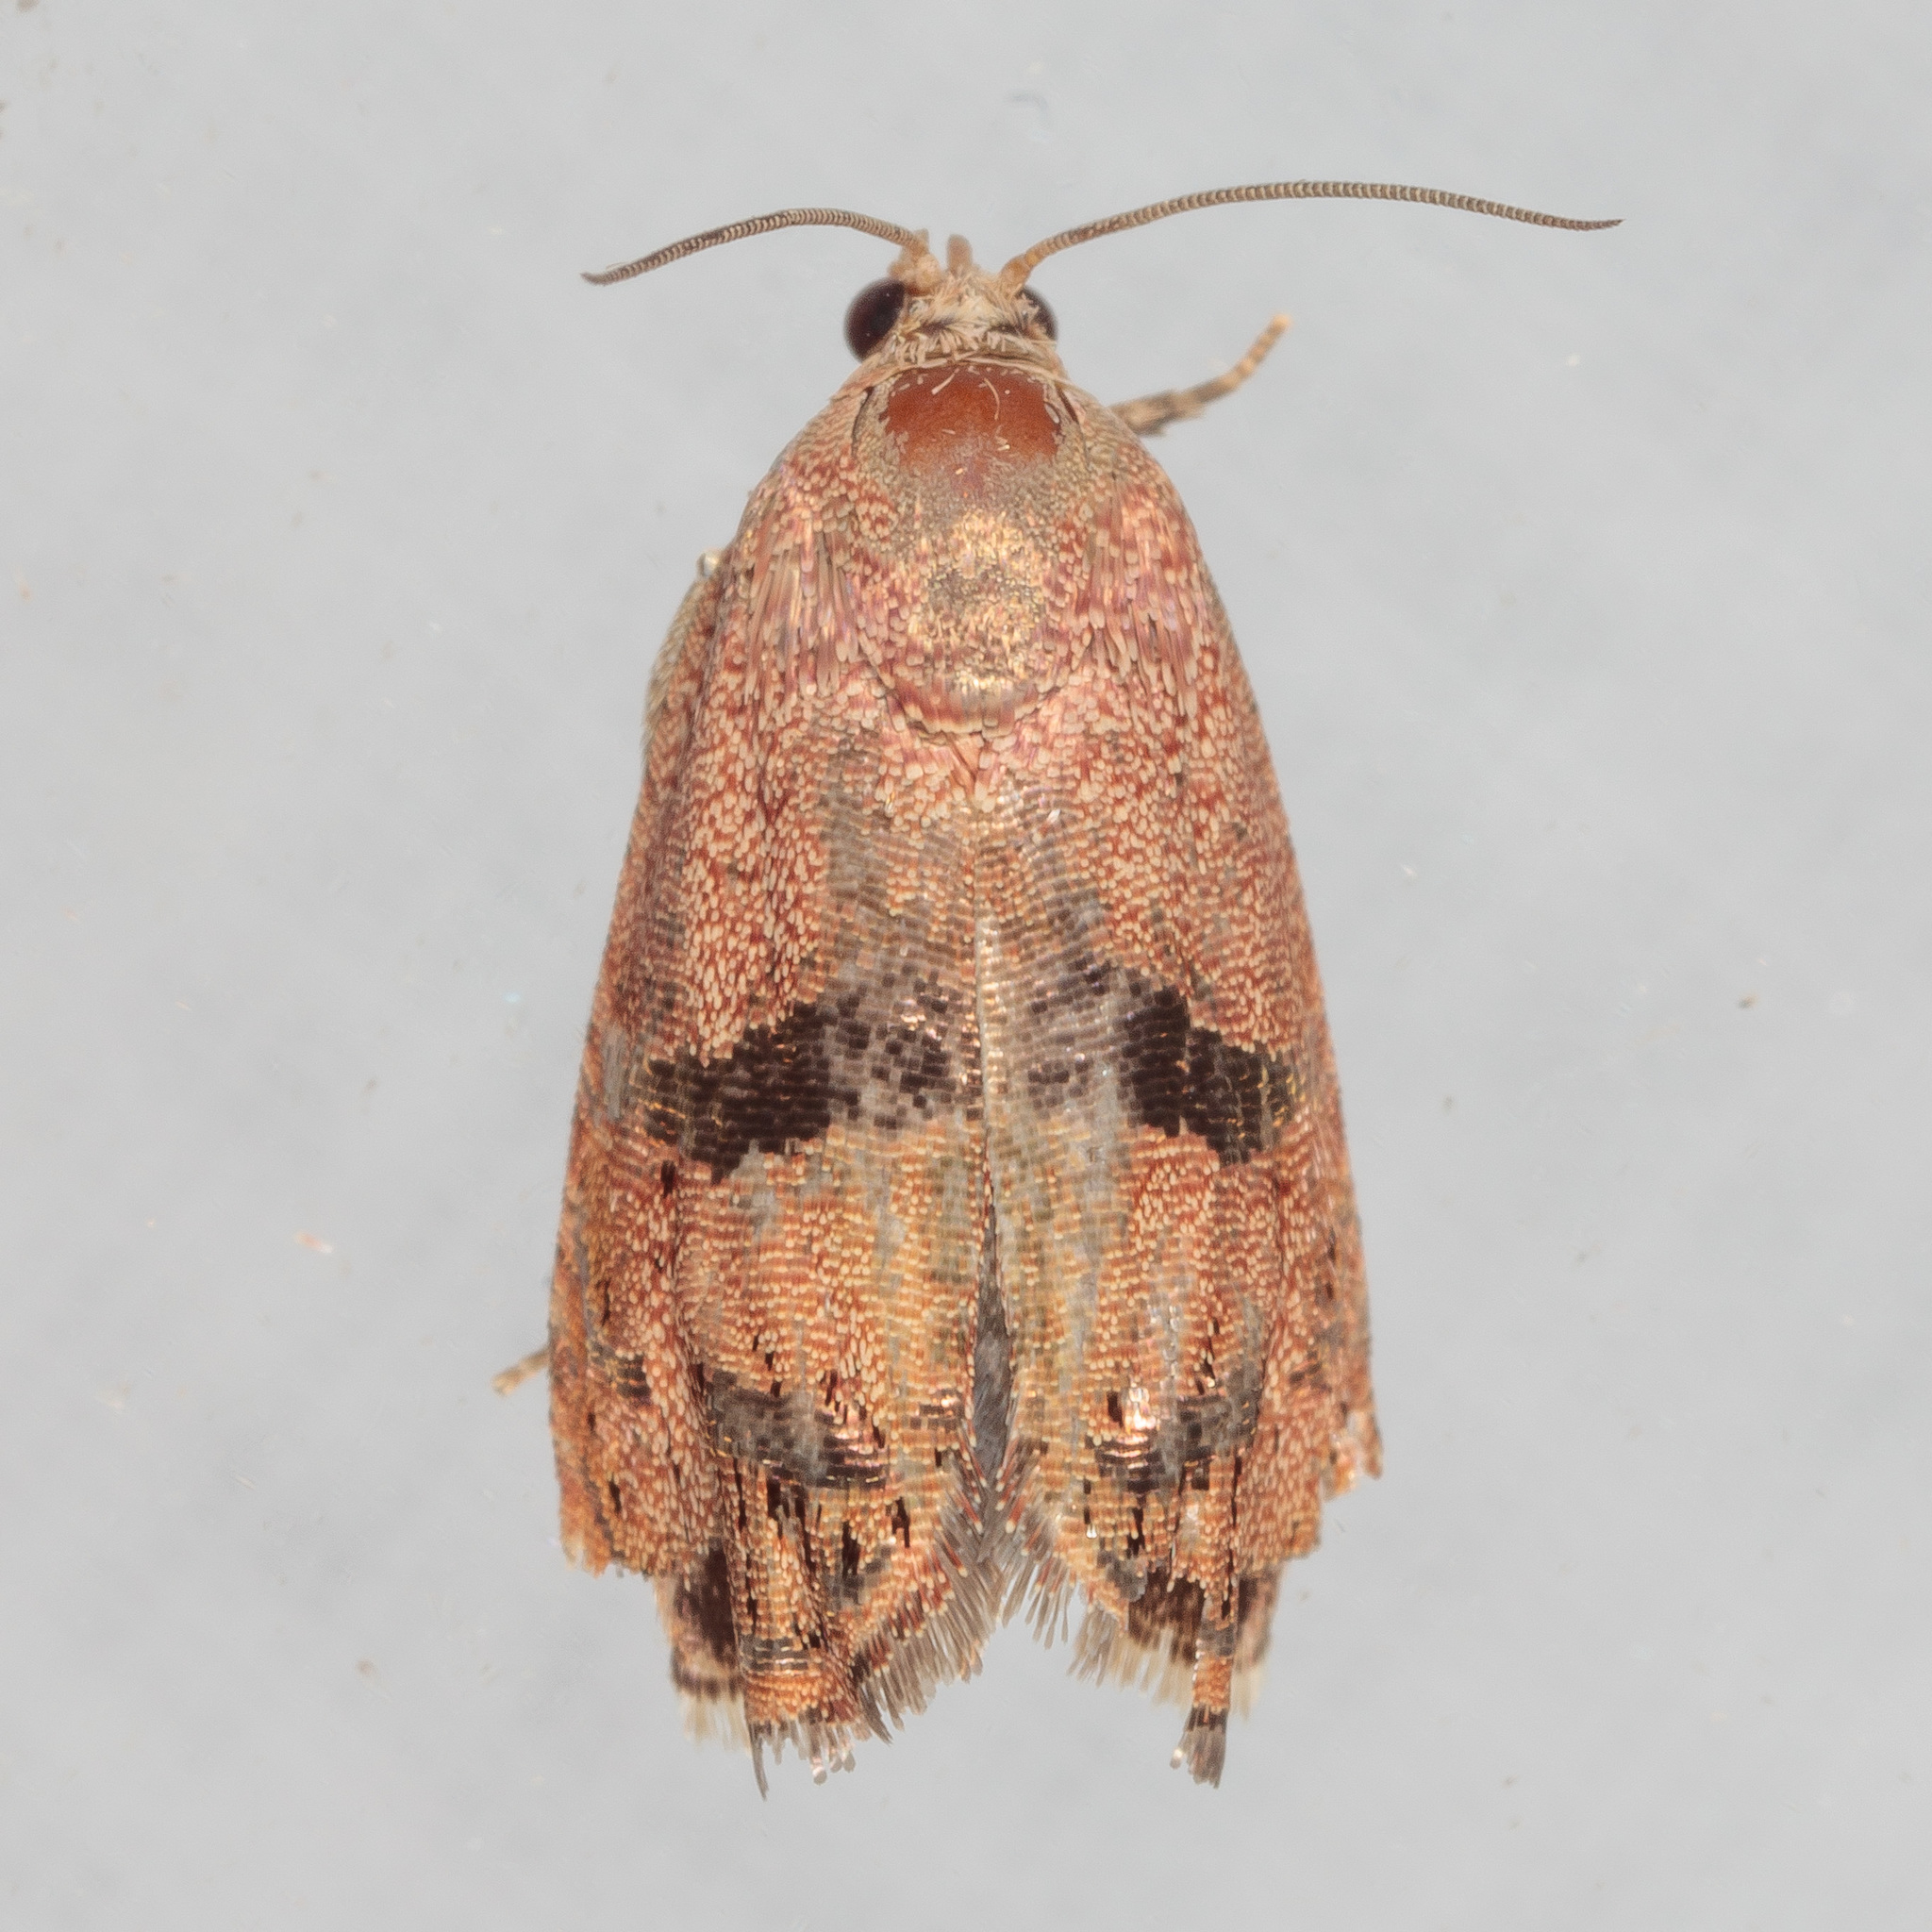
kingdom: Animalia
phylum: Arthropoda
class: Insecta
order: Lepidoptera
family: Tortricidae
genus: Cydia
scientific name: Cydia latiferreana
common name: Filbertworm moth
